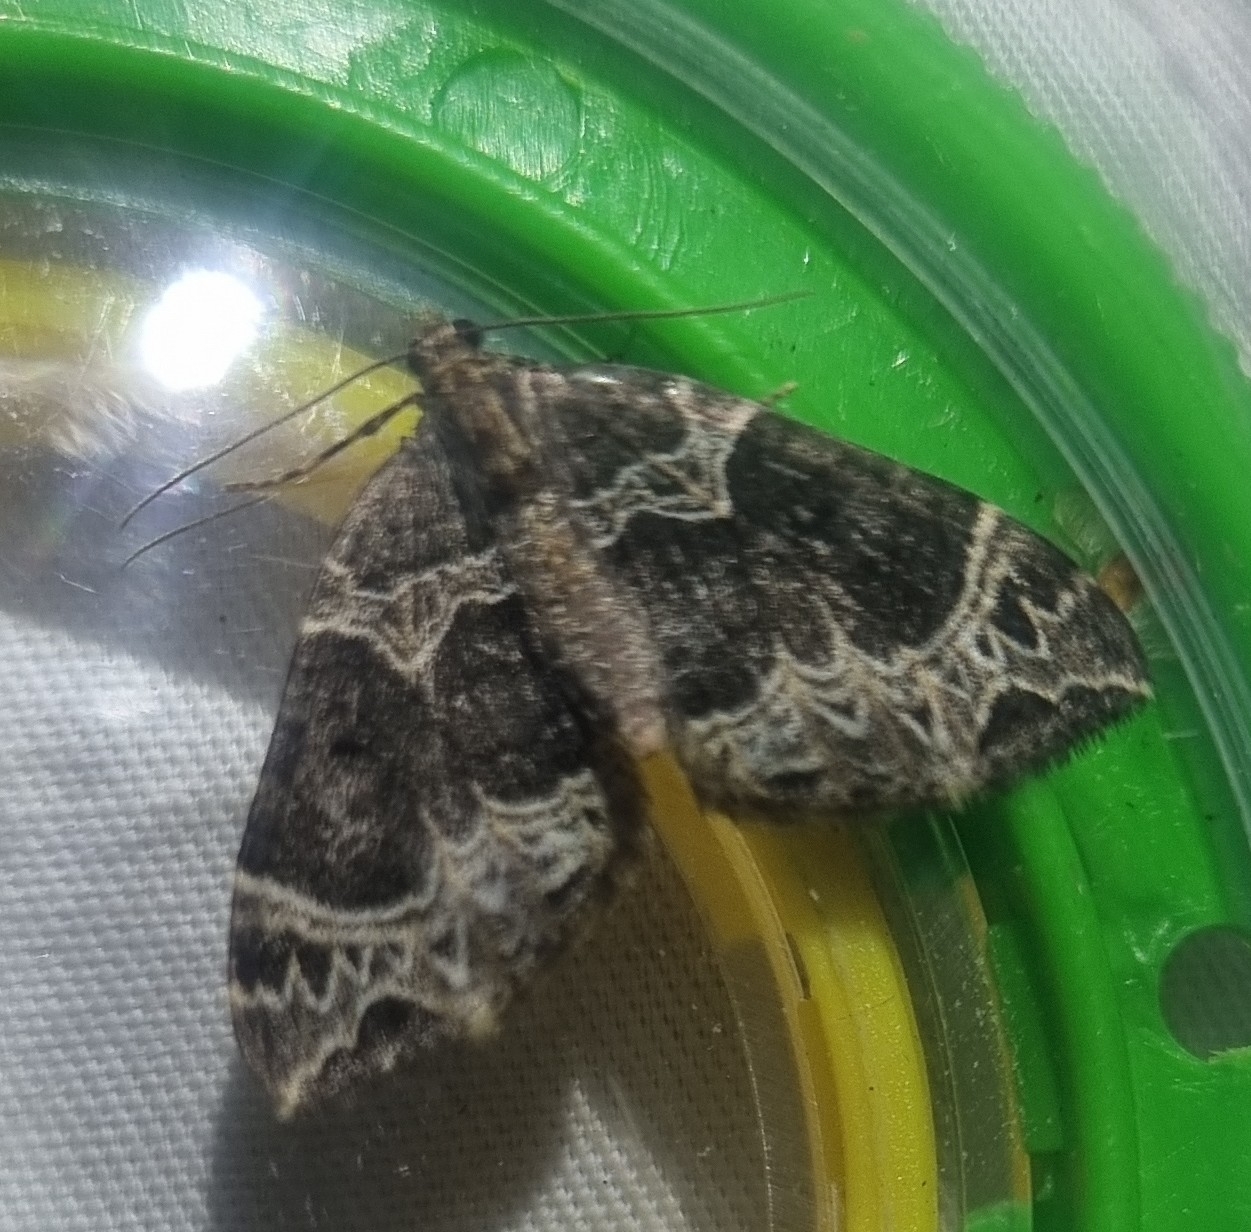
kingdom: Animalia
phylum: Arthropoda
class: Insecta
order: Lepidoptera
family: Geometridae
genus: Ecliptopera
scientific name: Ecliptopera silaceata
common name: Small phoenix
